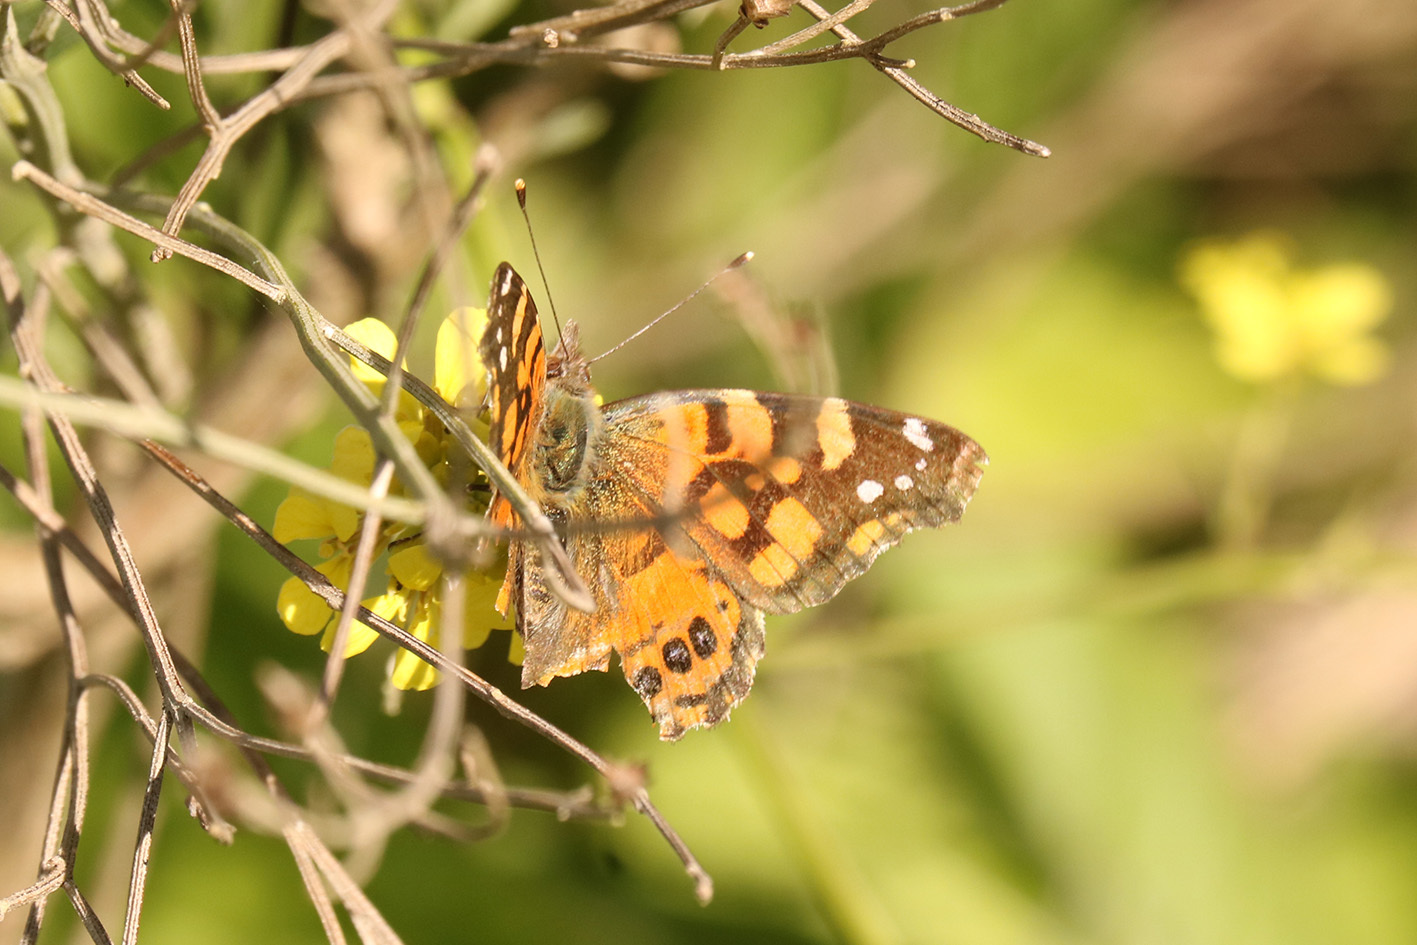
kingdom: Animalia
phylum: Arthropoda
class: Insecta
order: Lepidoptera
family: Nymphalidae
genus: Vanessa
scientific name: Vanessa carye
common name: Subtropical lady
